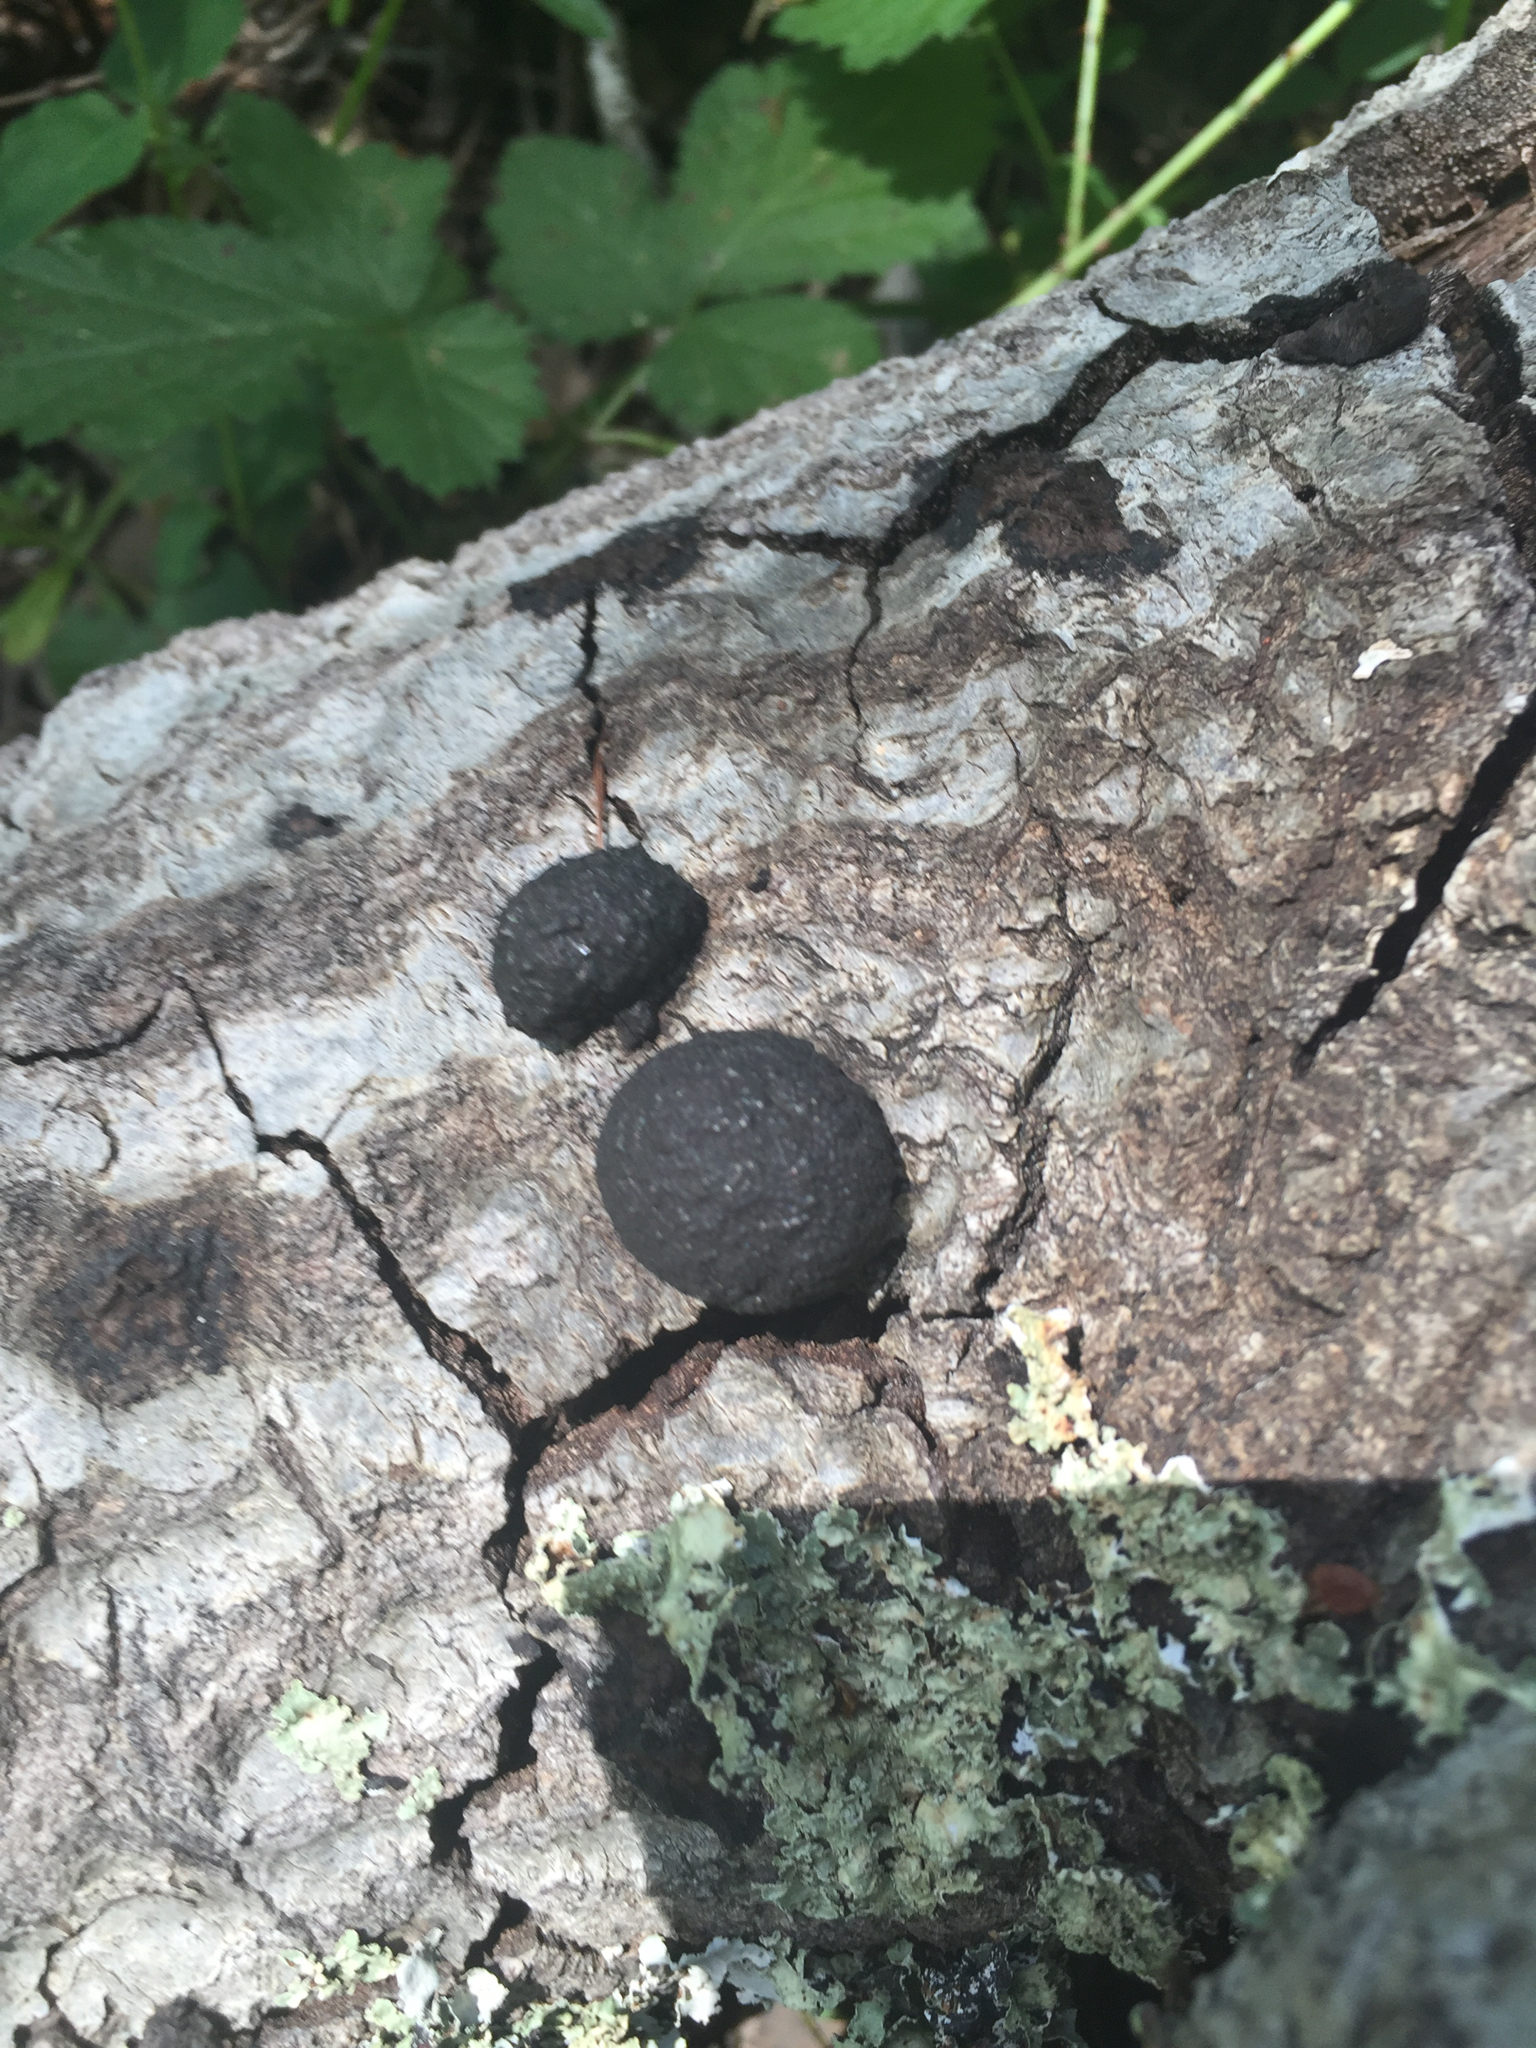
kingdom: Fungi
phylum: Ascomycota
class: Sordariomycetes
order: Xylariales
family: Hypoxylaceae
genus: Annulohypoxylon
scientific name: Annulohypoxylon thouarsianum
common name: Cramp balls
